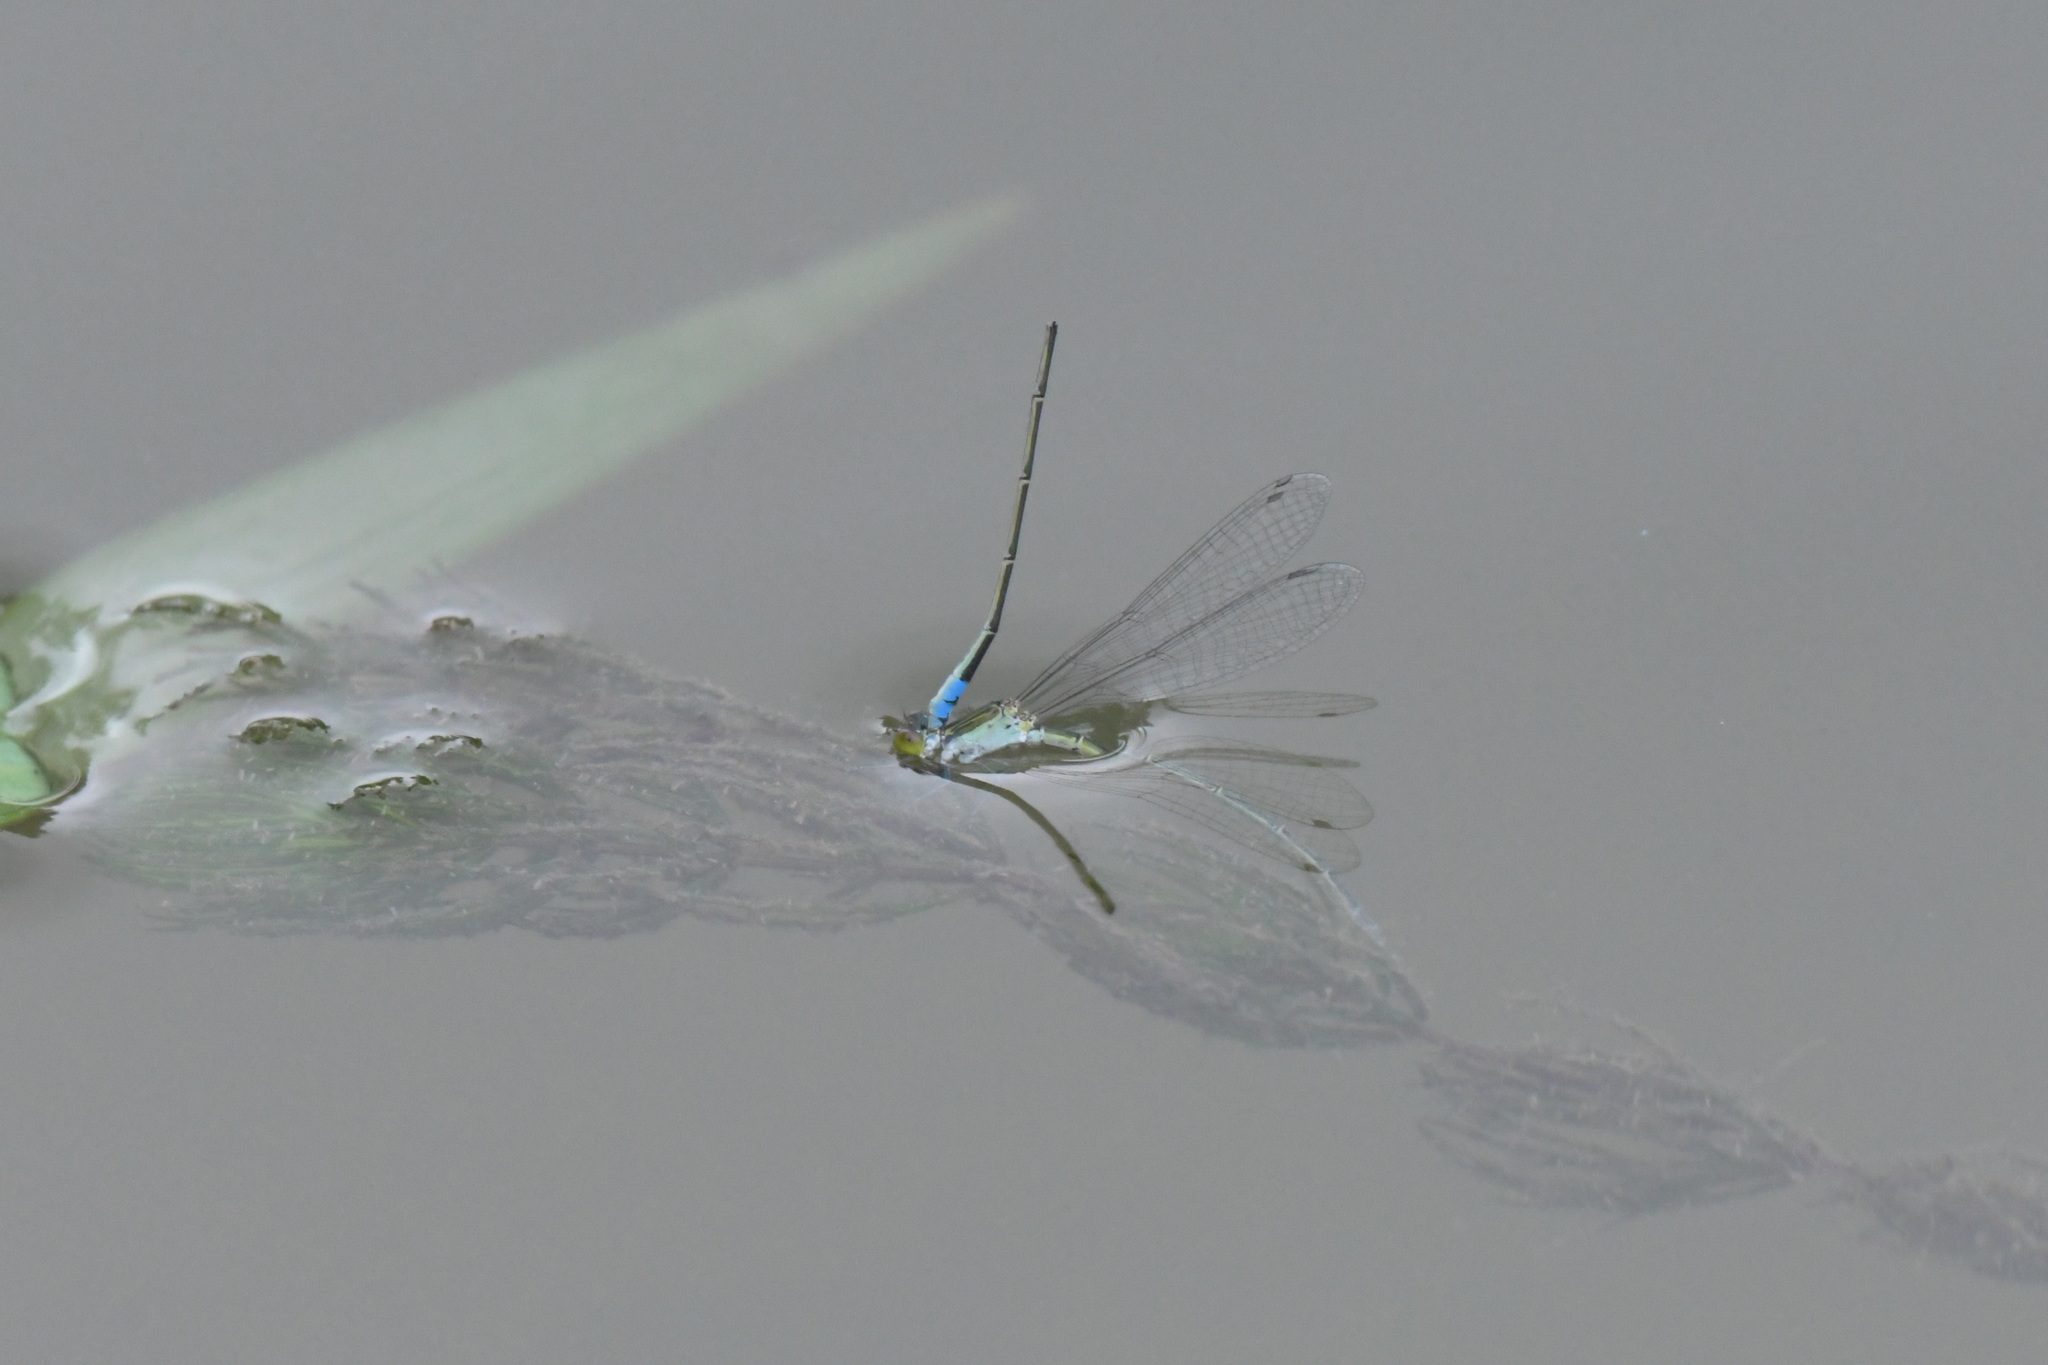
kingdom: Animalia
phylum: Arthropoda
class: Insecta
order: Odonata
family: Coenagrionidae
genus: Paracercion
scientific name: Paracercion calamorum
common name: Dusky lilysquatter
